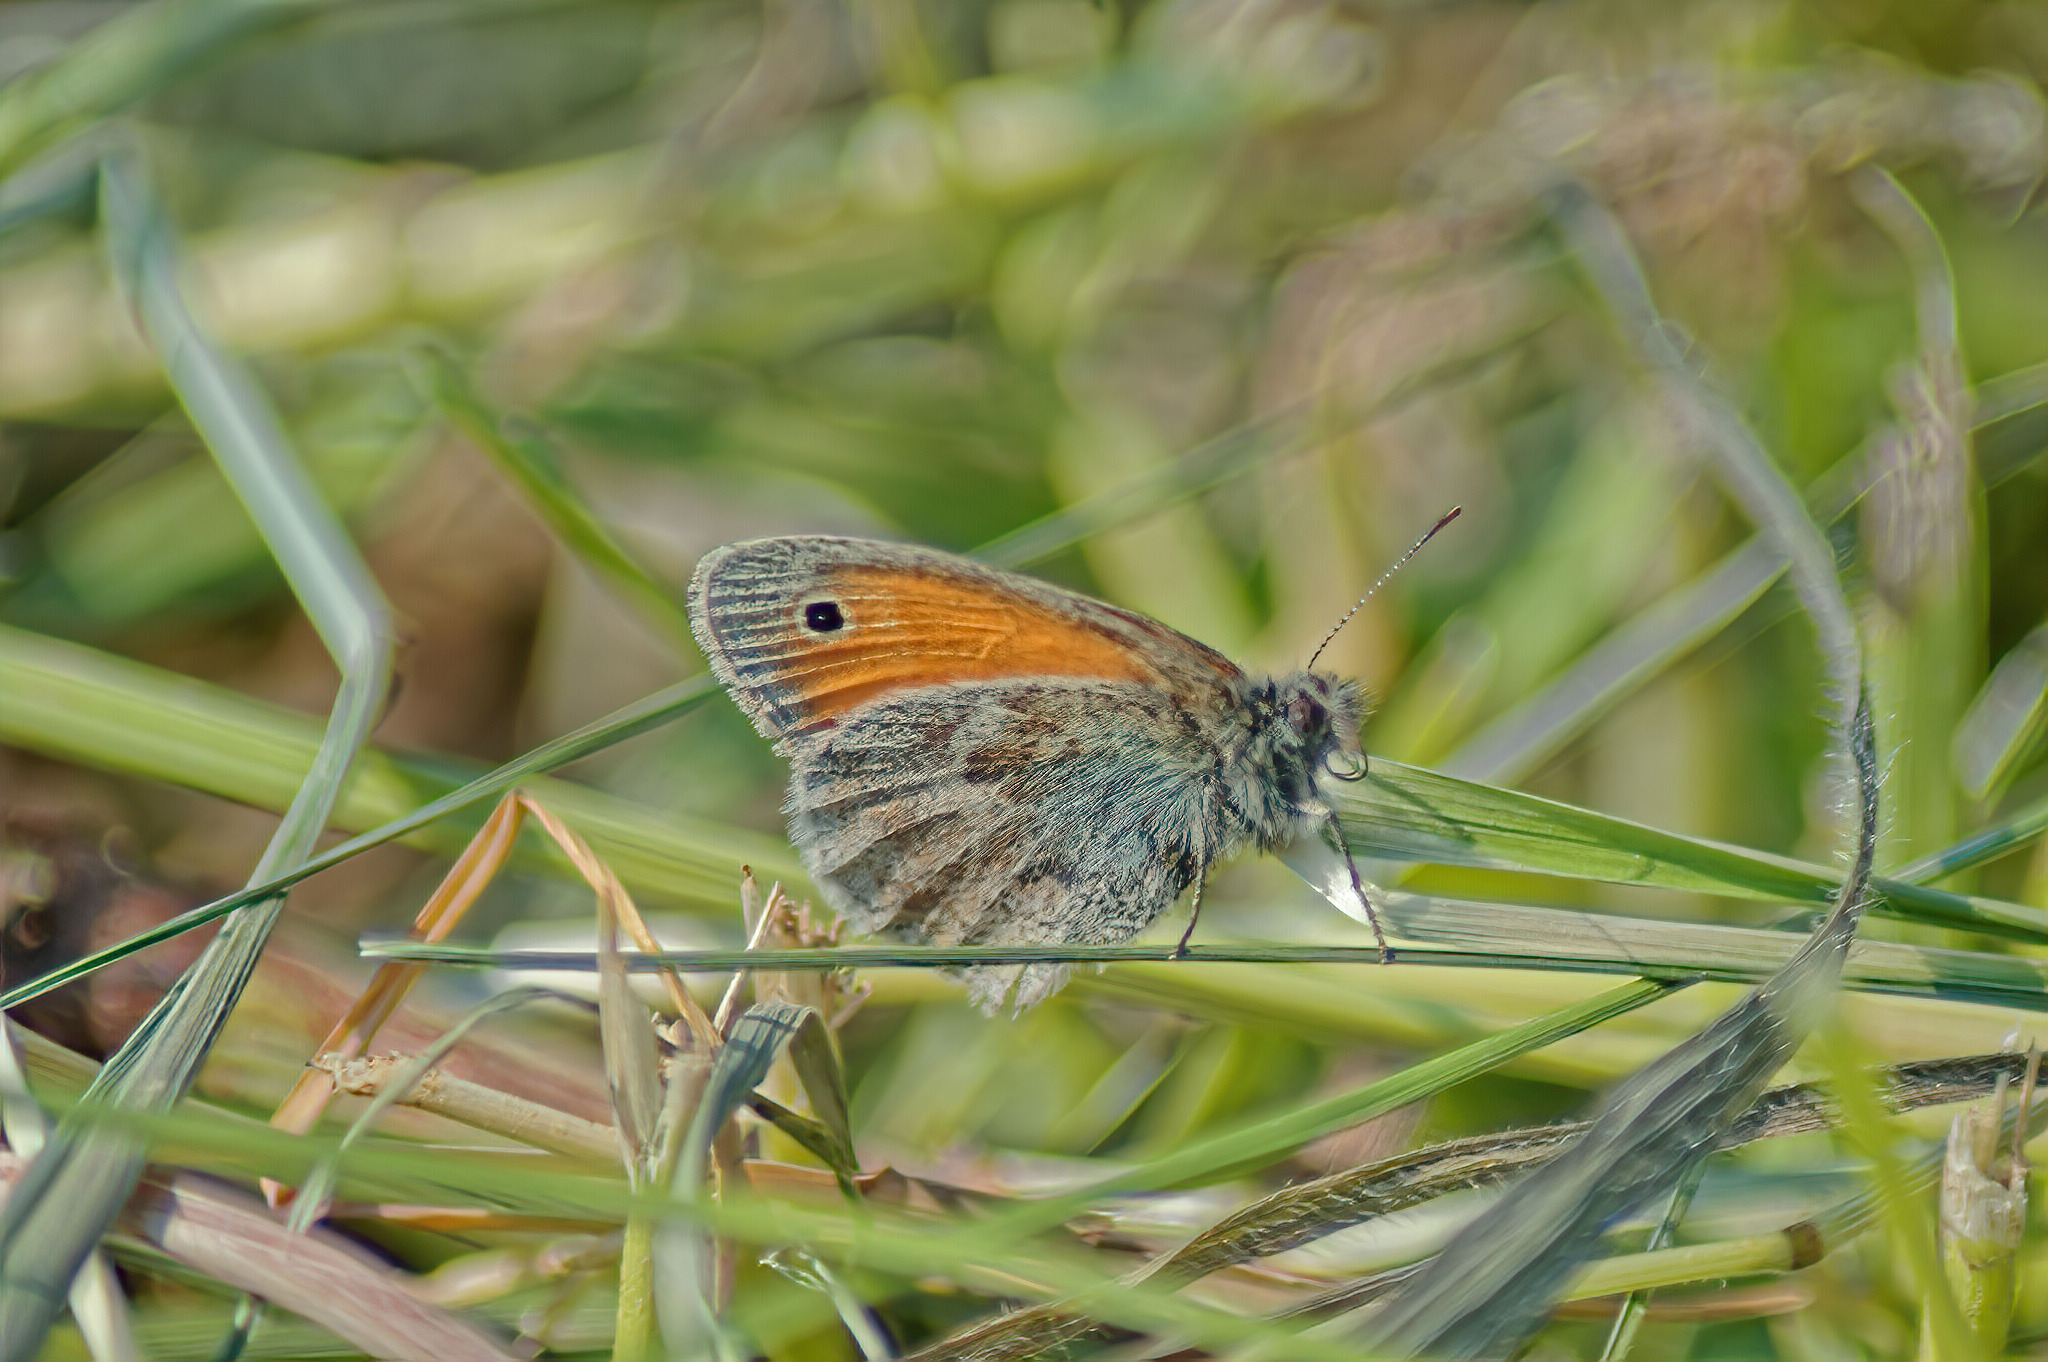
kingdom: Animalia
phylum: Arthropoda
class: Insecta
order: Lepidoptera
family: Nymphalidae
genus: Coenonympha
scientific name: Coenonympha pamphilus
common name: Small heath
